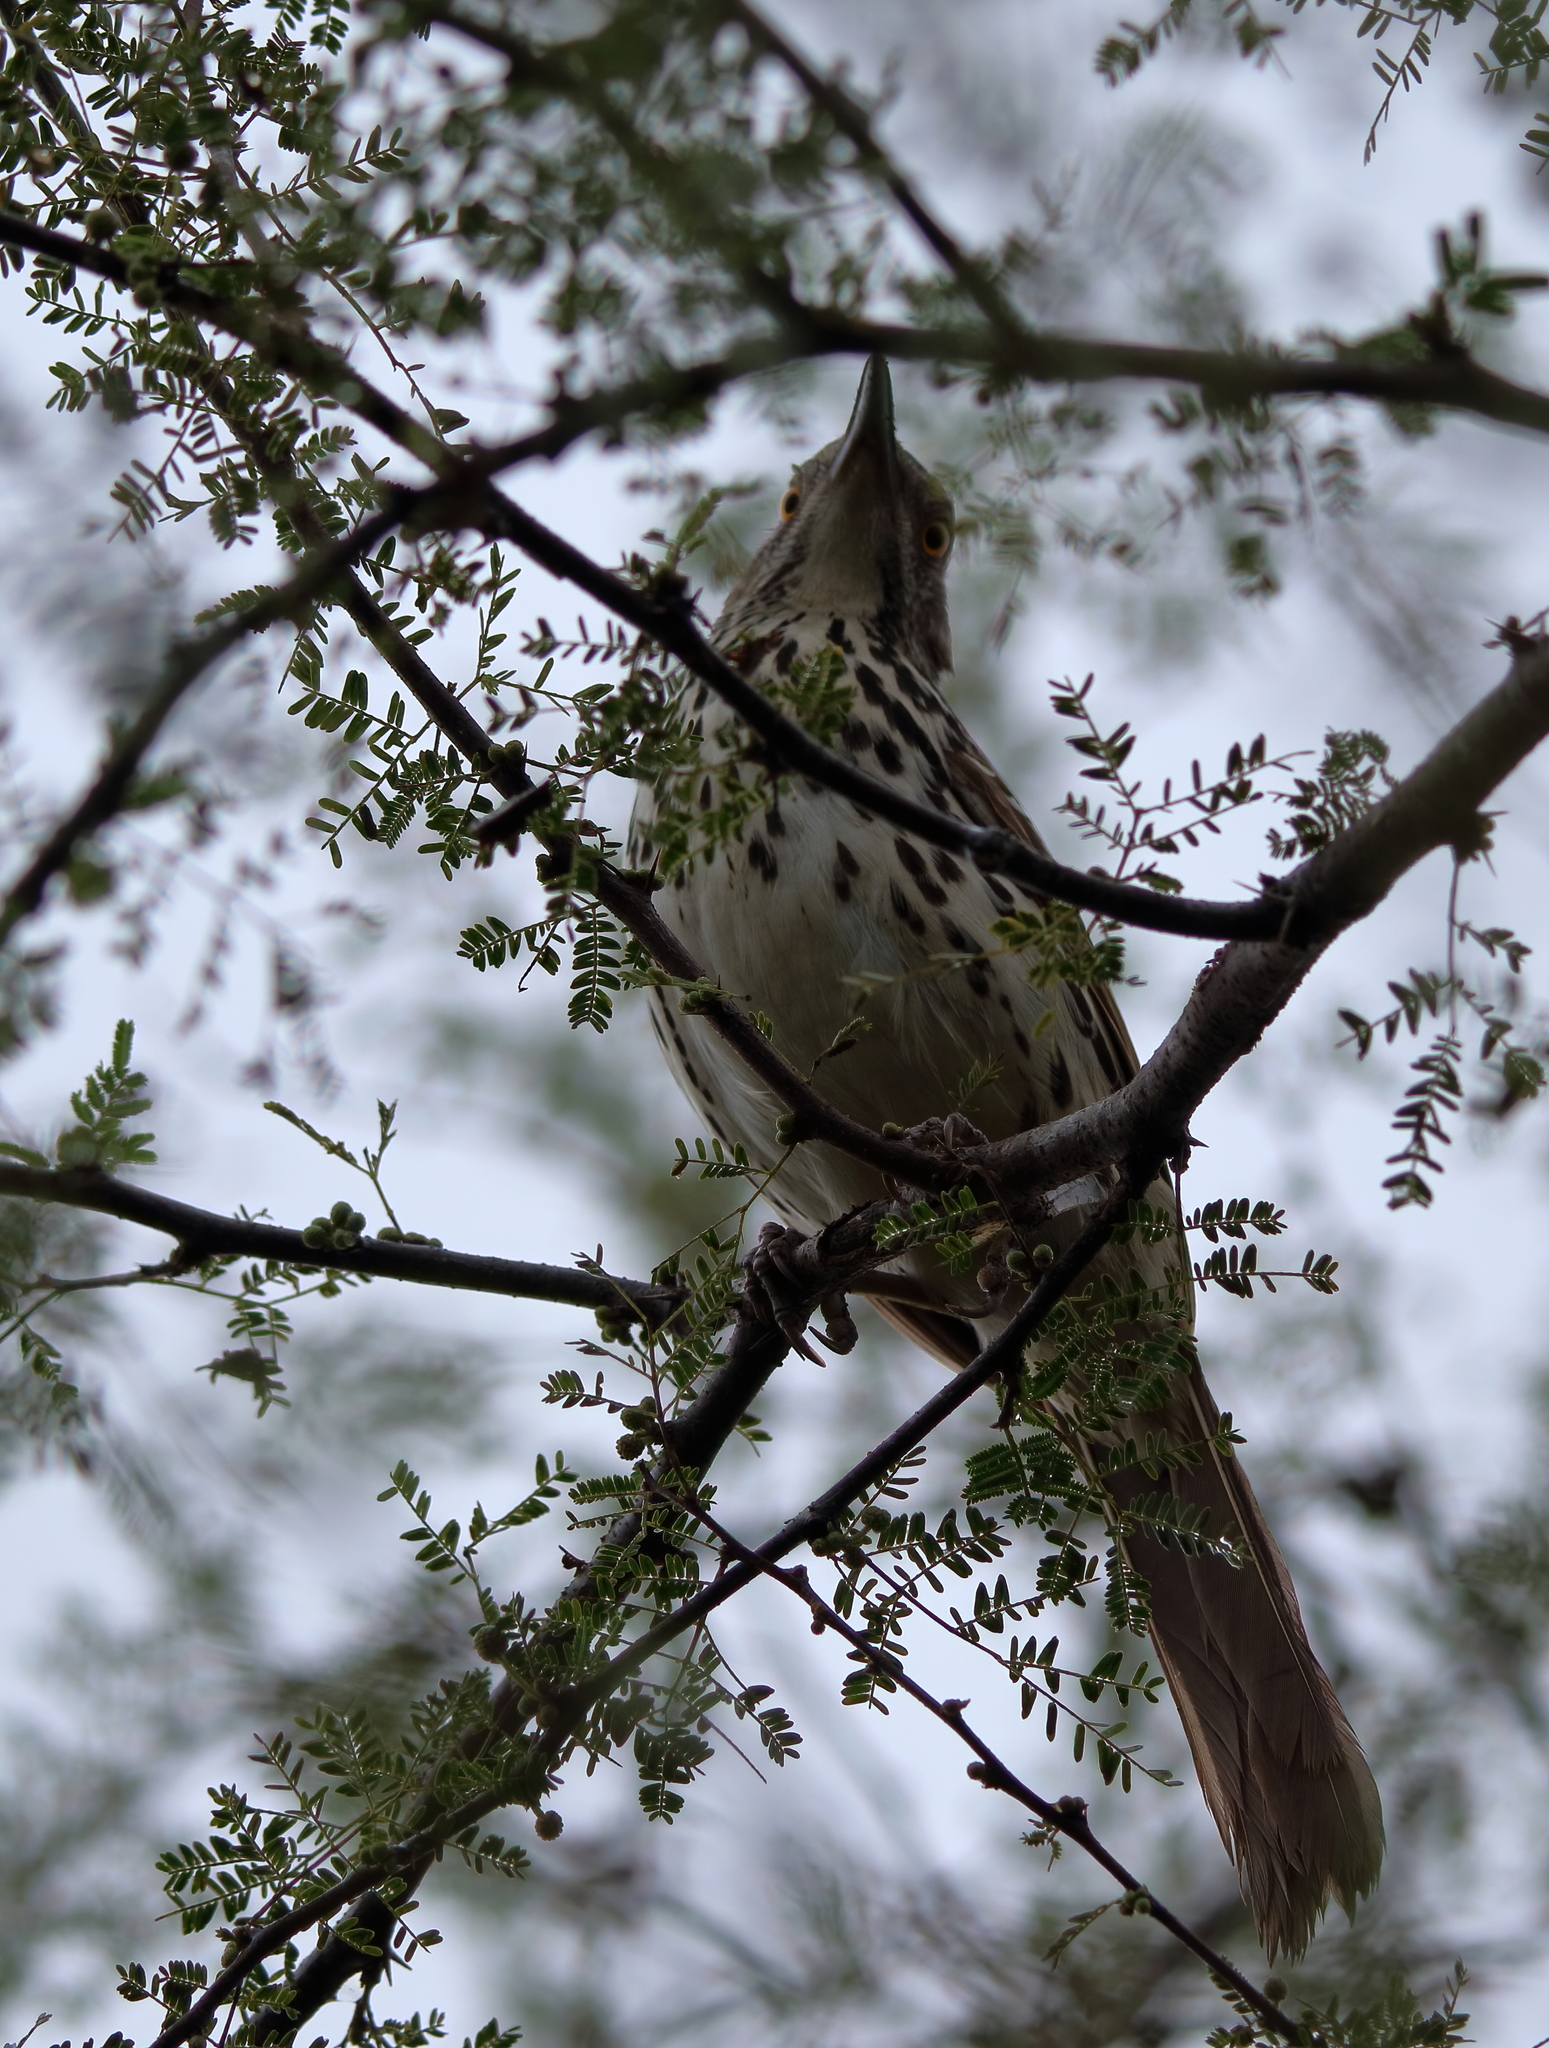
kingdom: Animalia
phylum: Chordata
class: Aves
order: Passeriformes
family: Mimidae
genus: Toxostoma
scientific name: Toxostoma longirostre
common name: Long-billed thrasher
